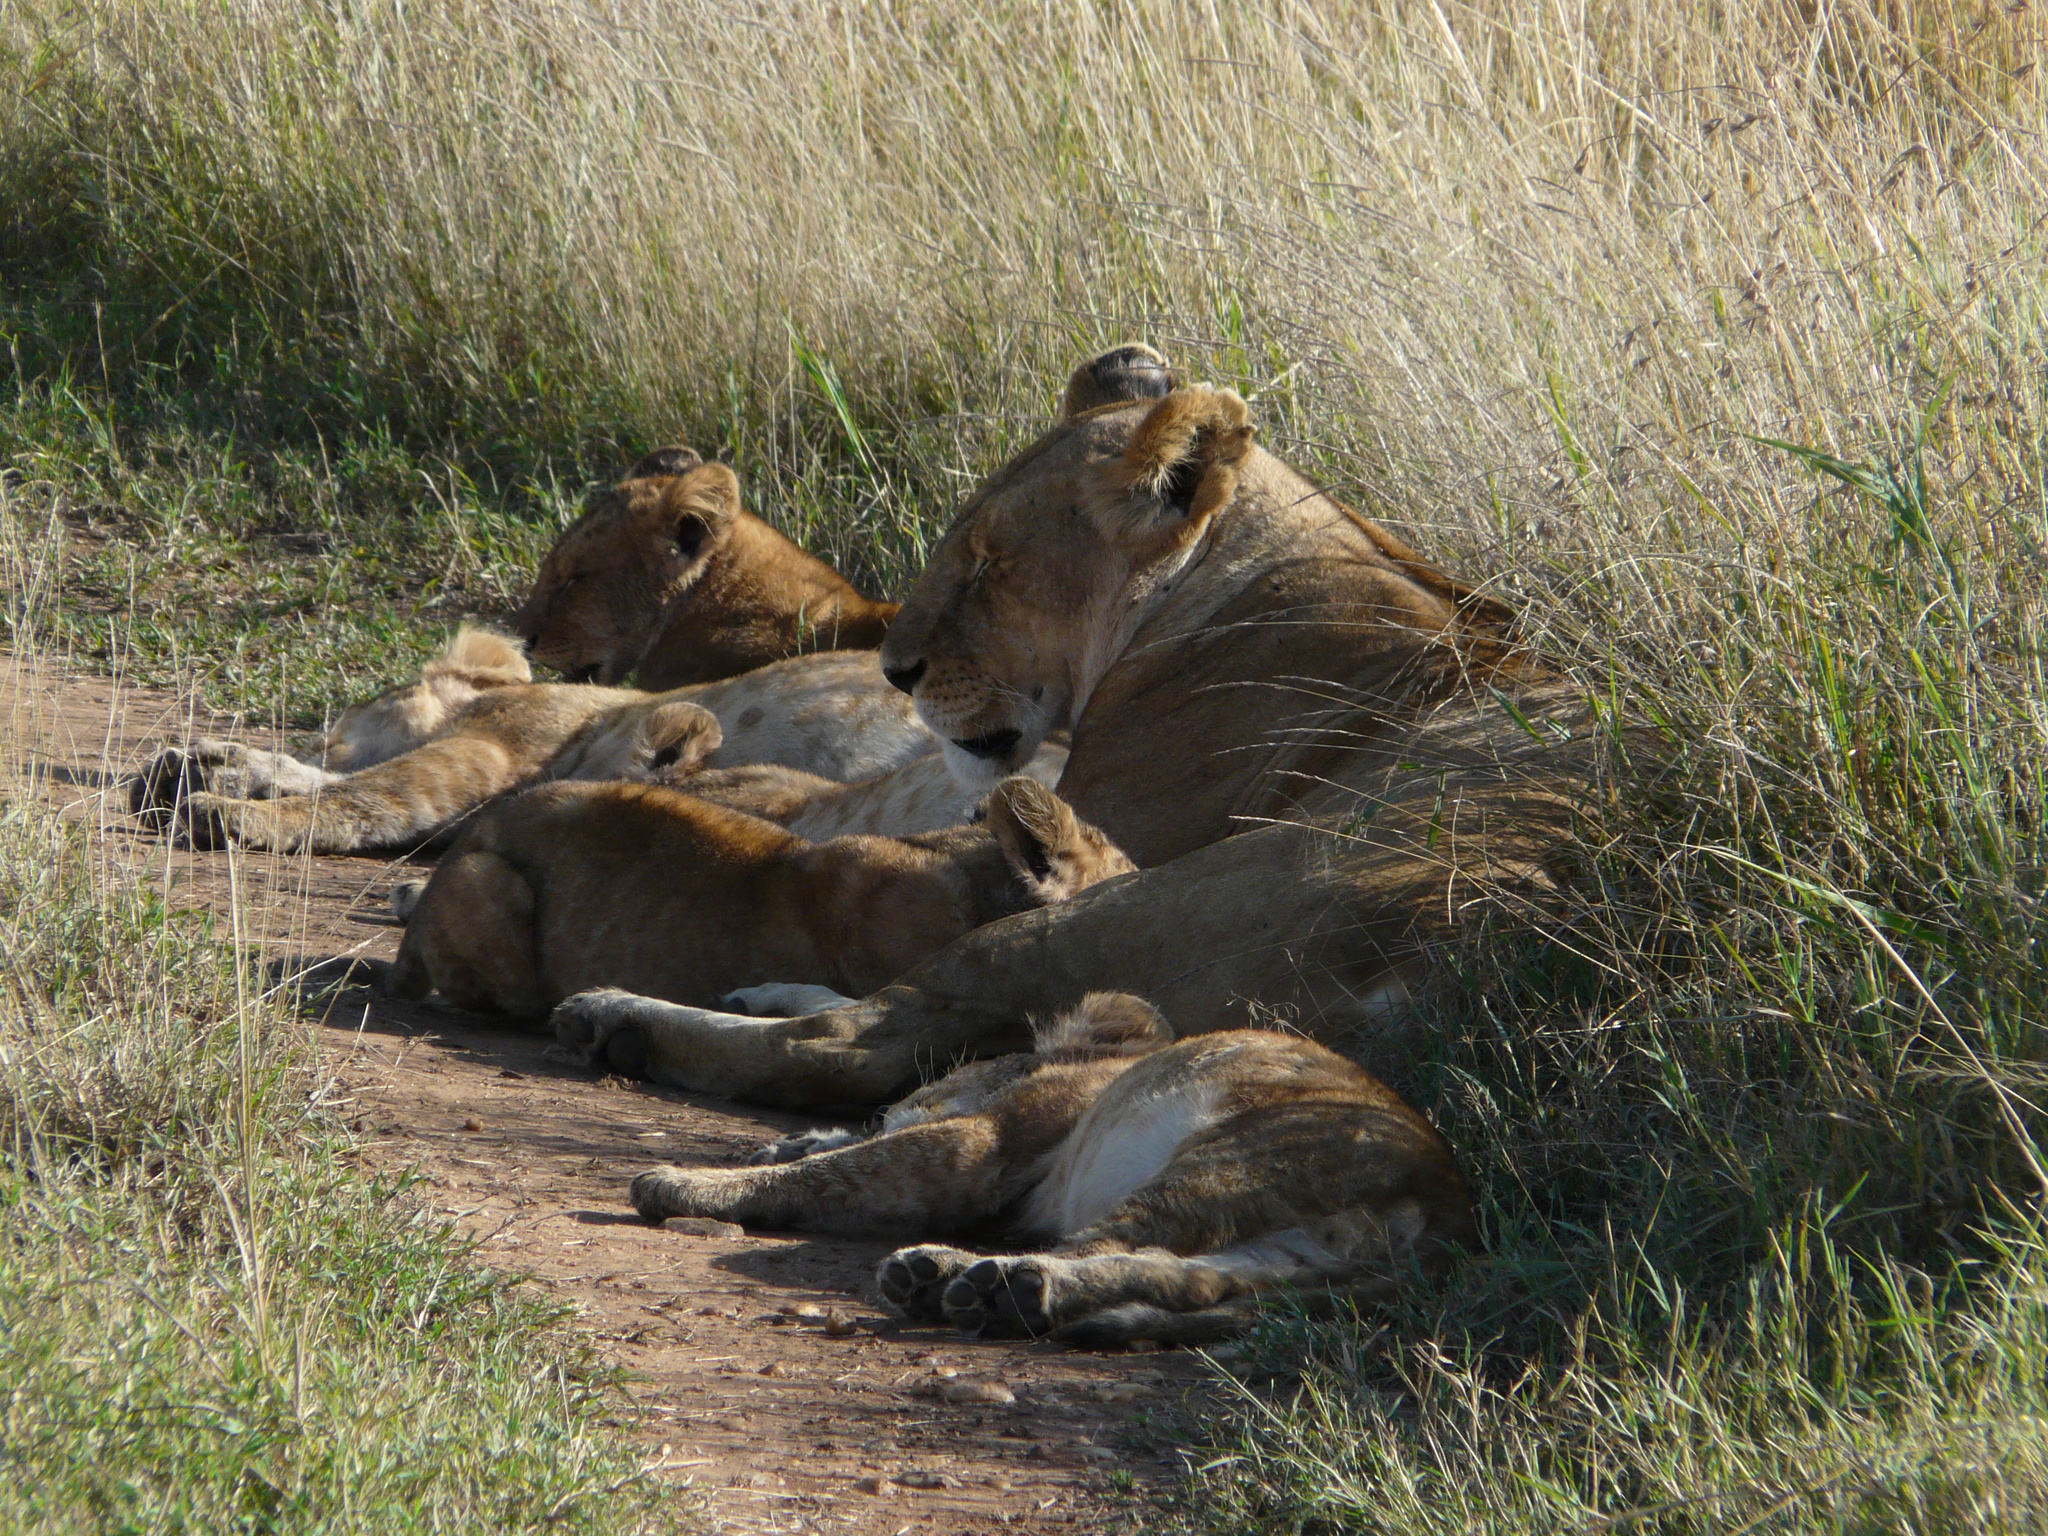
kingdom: Animalia
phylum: Chordata
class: Mammalia
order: Carnivora
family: Felidae
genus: Panthera
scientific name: Panthera leo
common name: Lion
